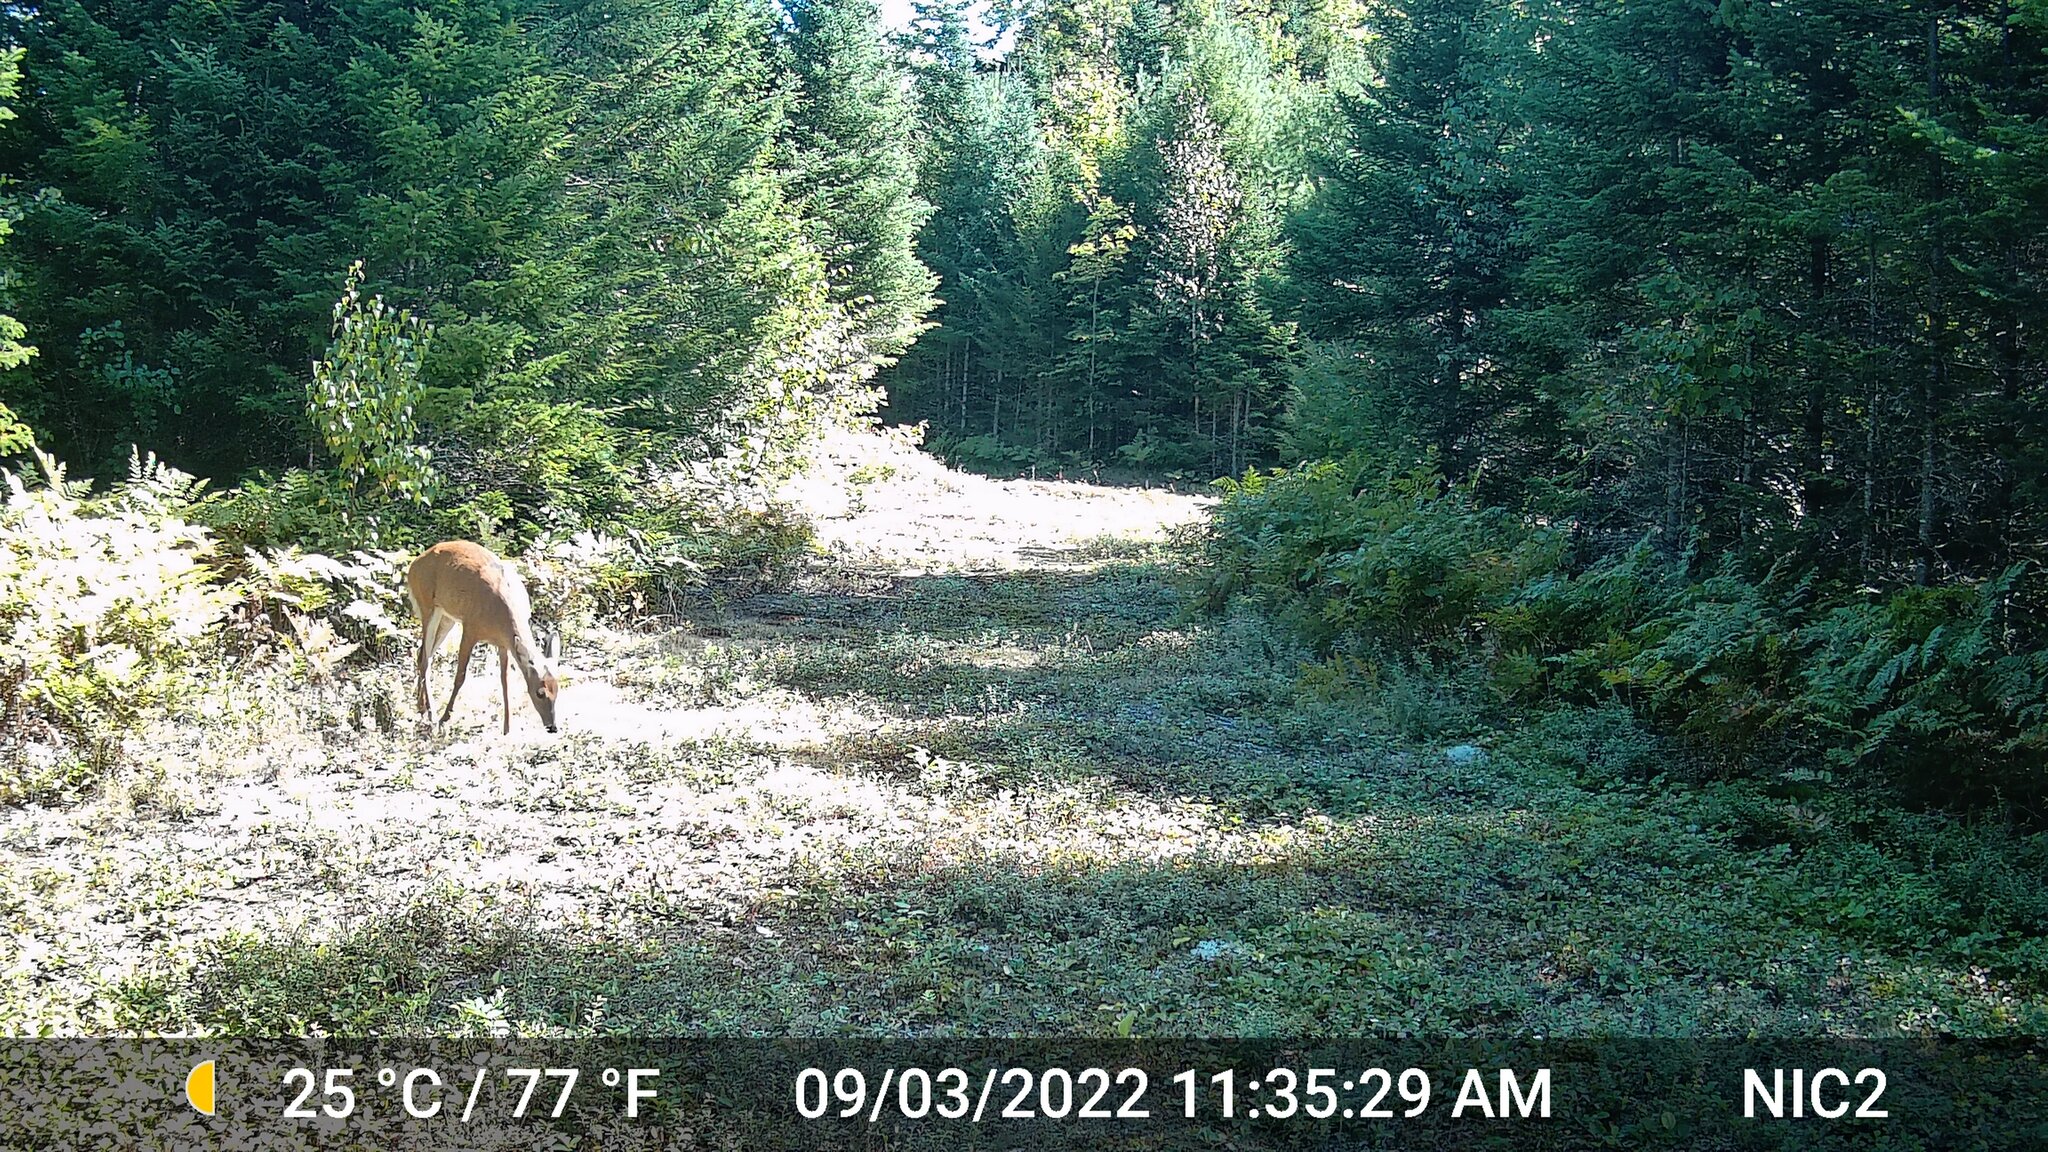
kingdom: Animalia
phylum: Chordata
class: Mammalia
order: Artiodactyla
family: Cervidae
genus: Odocoileus
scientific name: Odocoileus virginianus
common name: White-tailed deer
